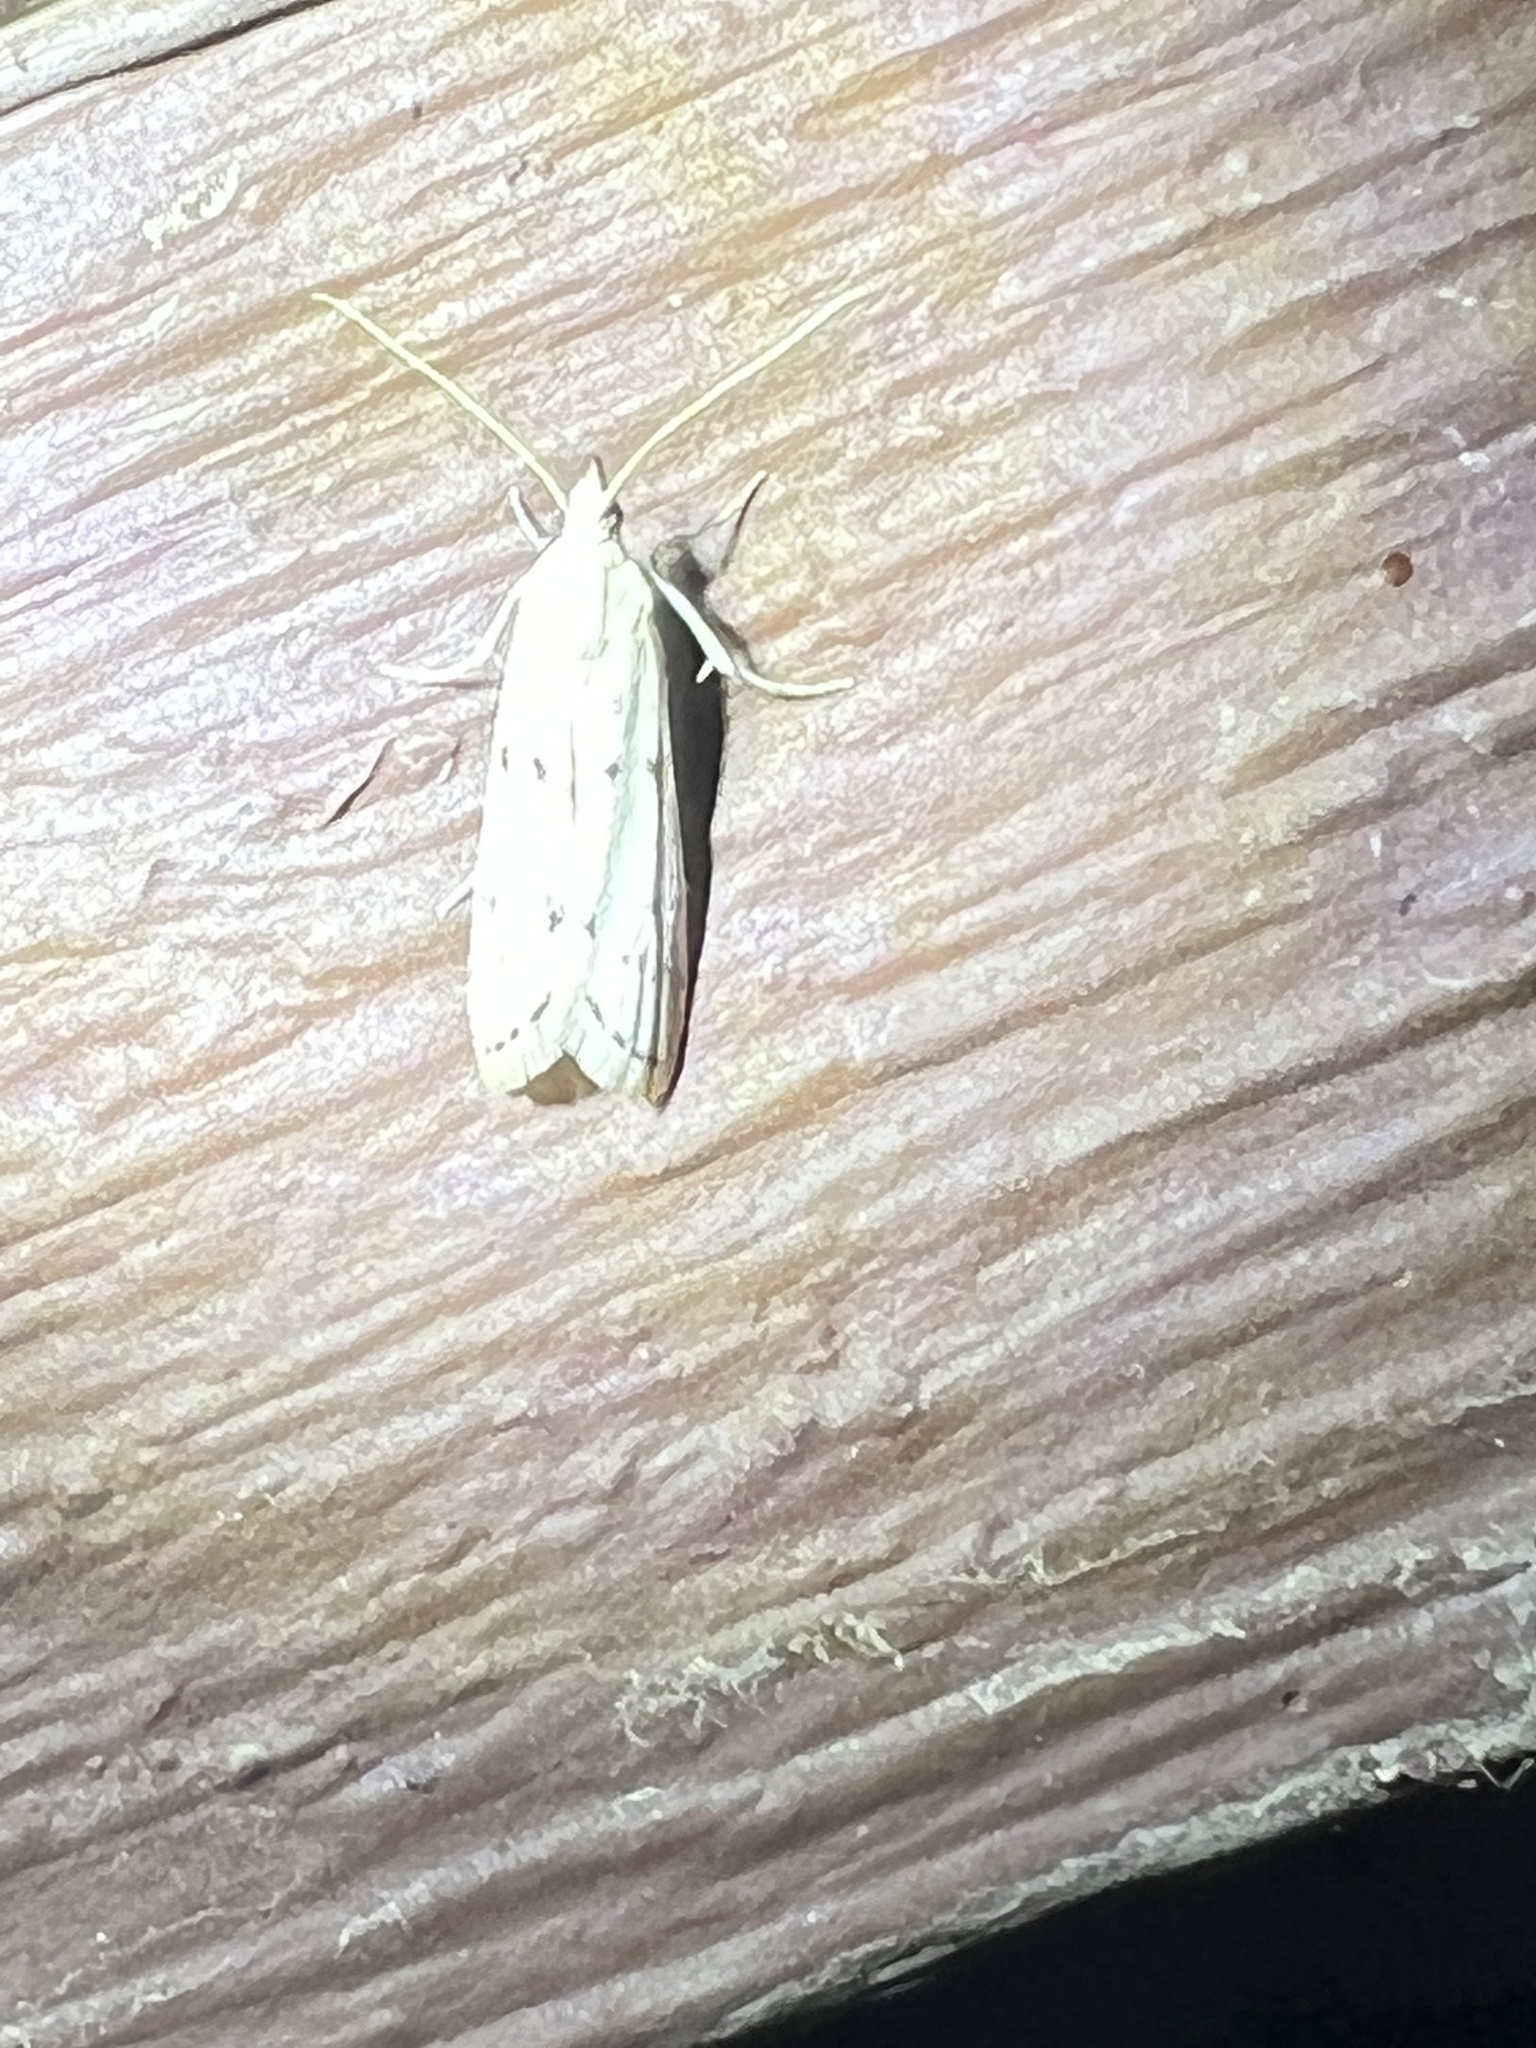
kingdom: Animalia
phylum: Arthropoda
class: Insecta
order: Lepidoptera
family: Pyralidae
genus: Sosipatra
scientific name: Sosipatra rileyella
